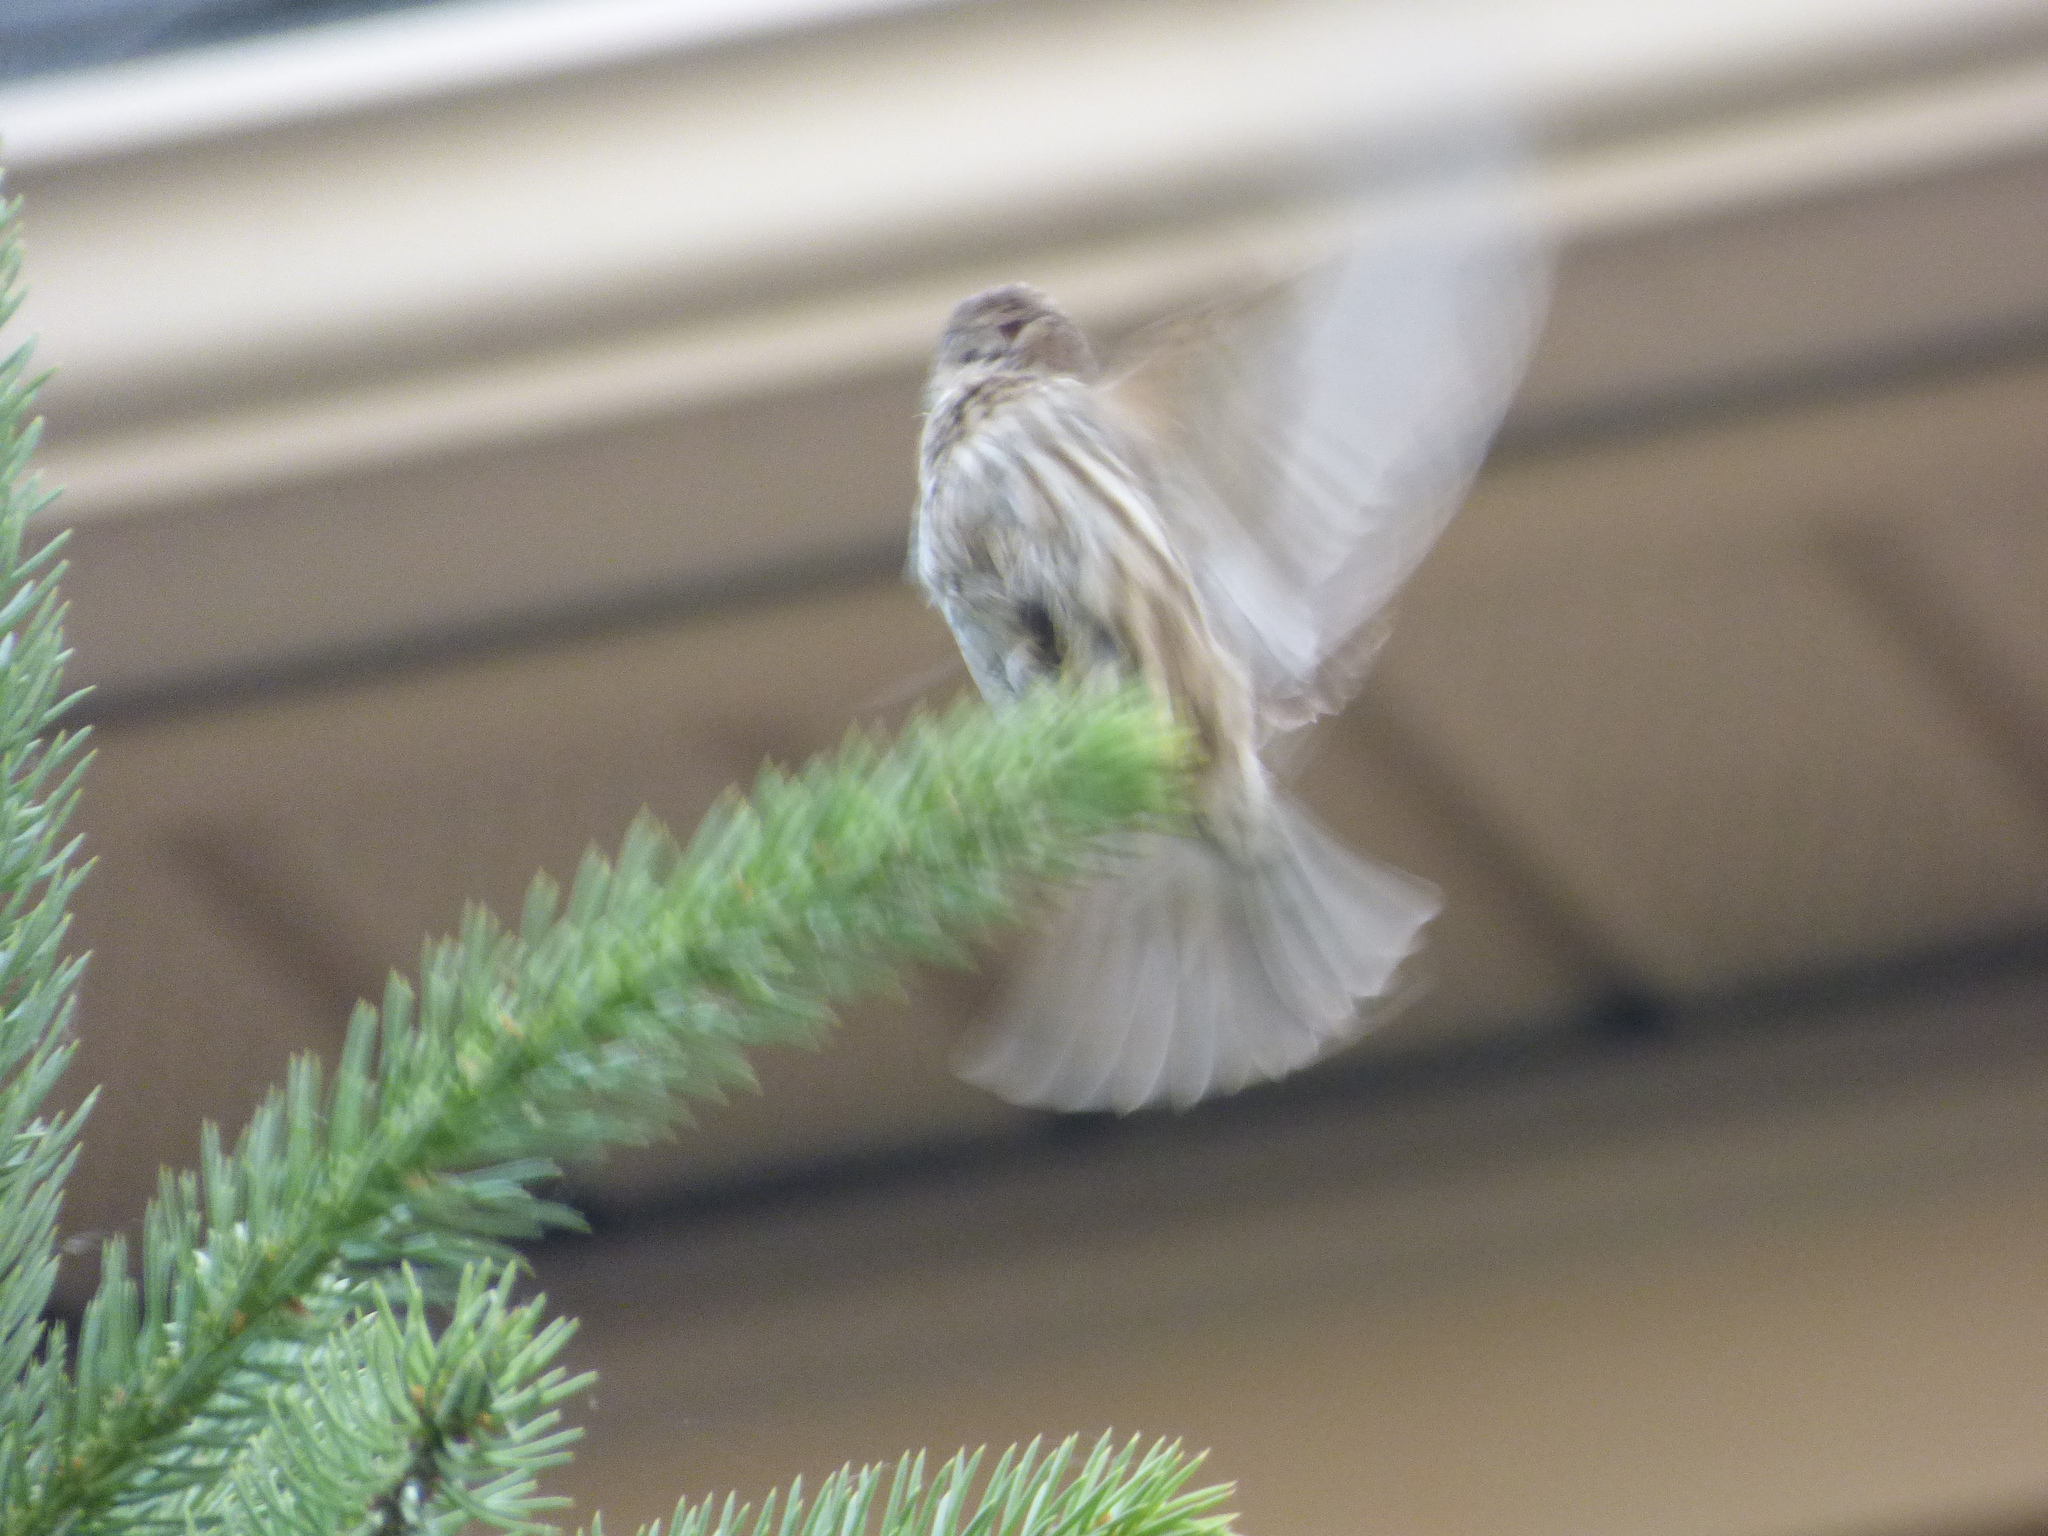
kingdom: Animalia
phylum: Chordata
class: Aves
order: Passeriformes
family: Fringillidae
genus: Haemorhous
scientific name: Haemorhous mexicanus
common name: House finch
